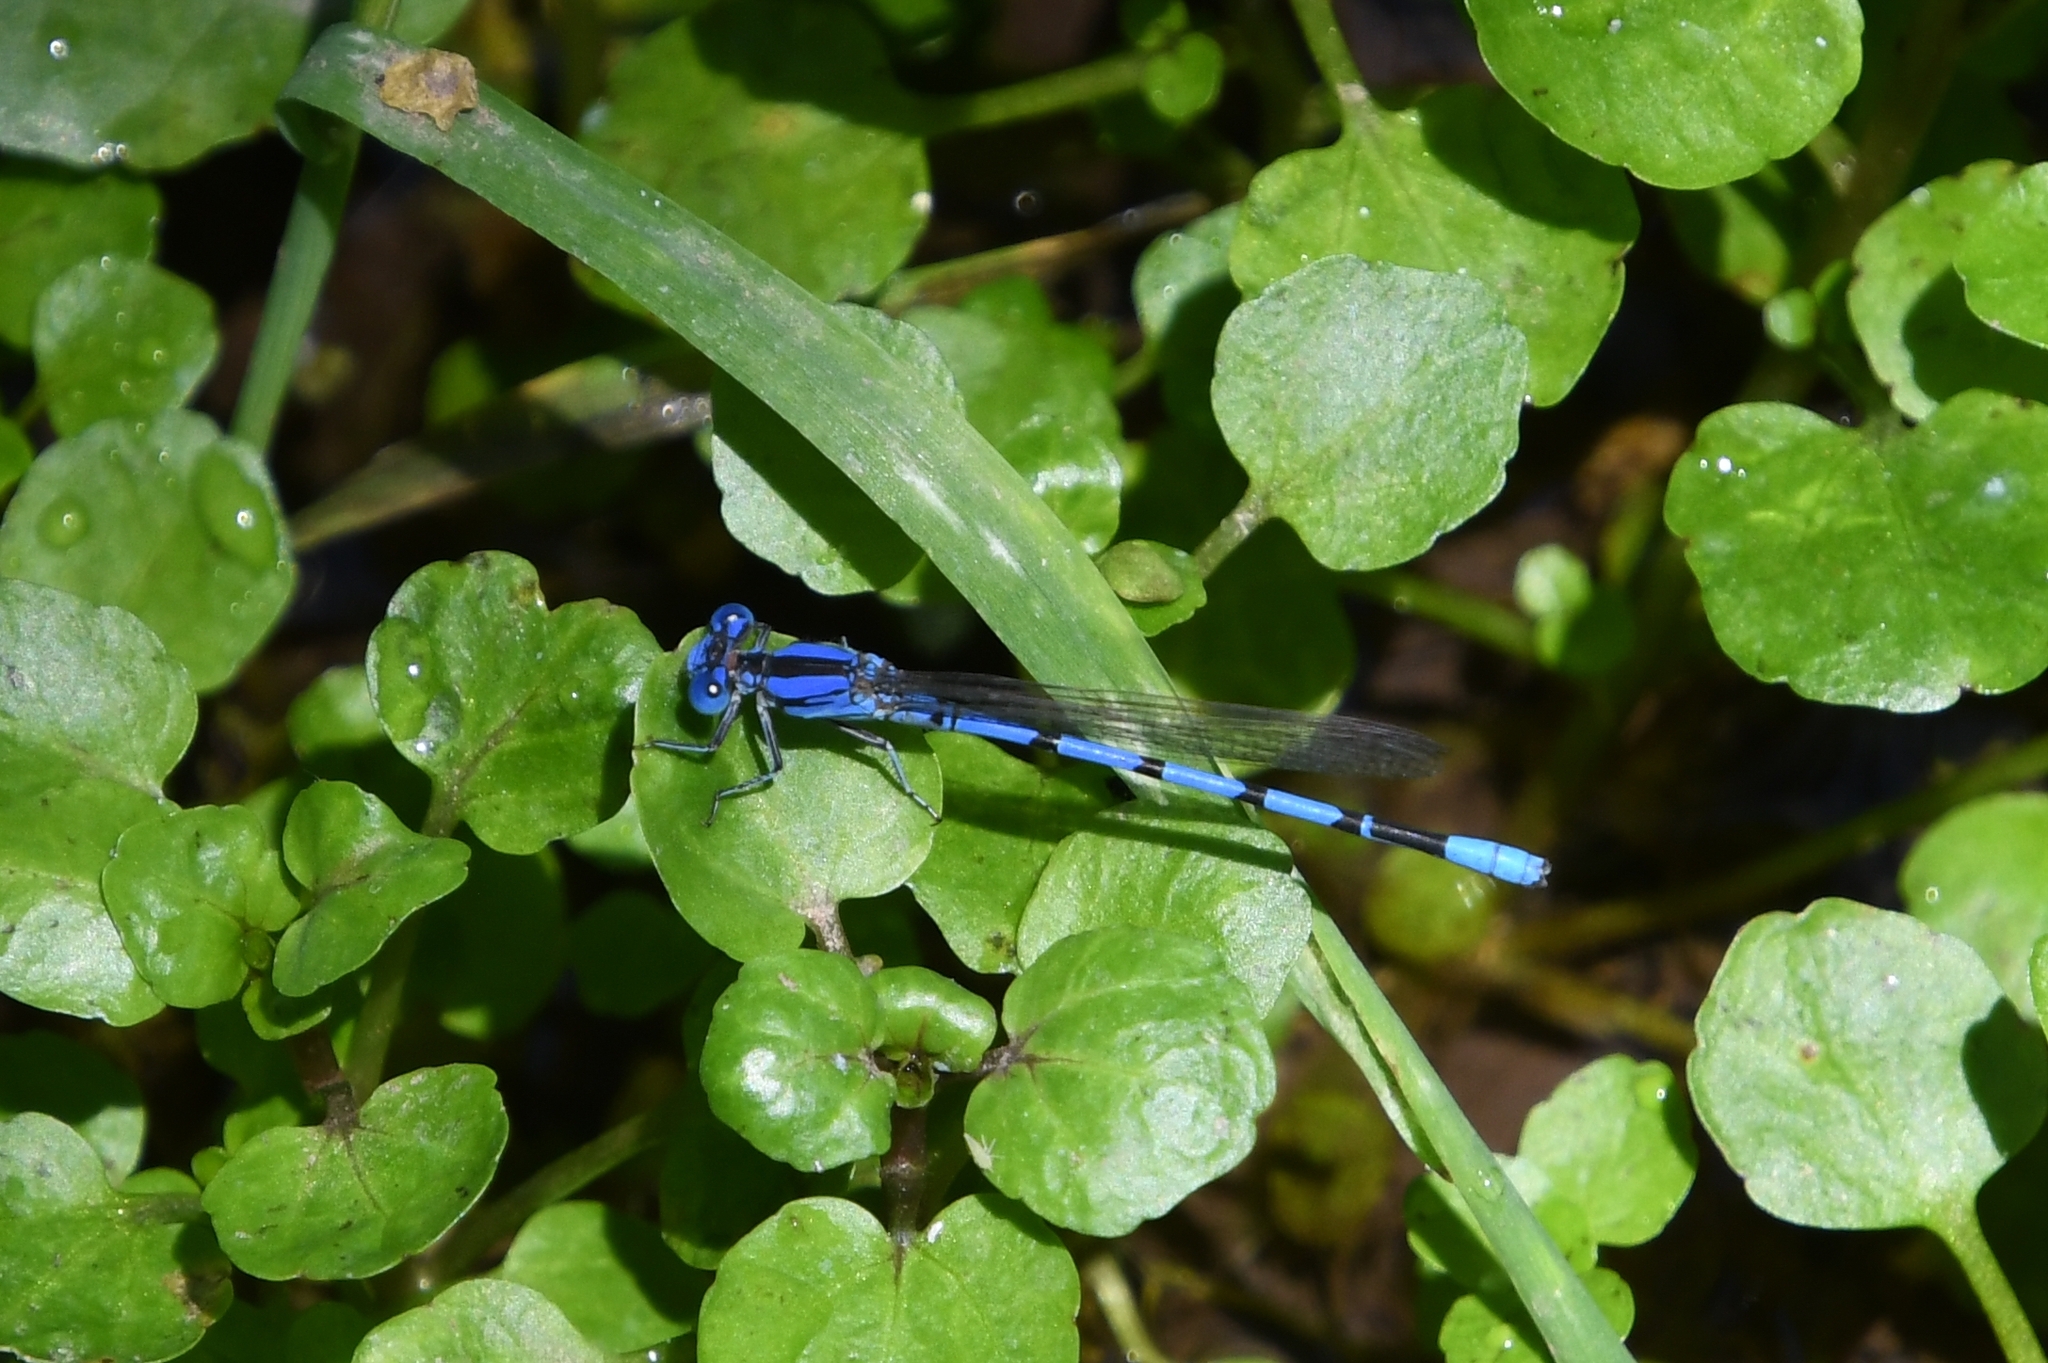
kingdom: Animalia
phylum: Arthropoda
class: Insecta
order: Odonata
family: Coenagrionidae
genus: Argia
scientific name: Argia nahuana
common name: Aztec dancer
